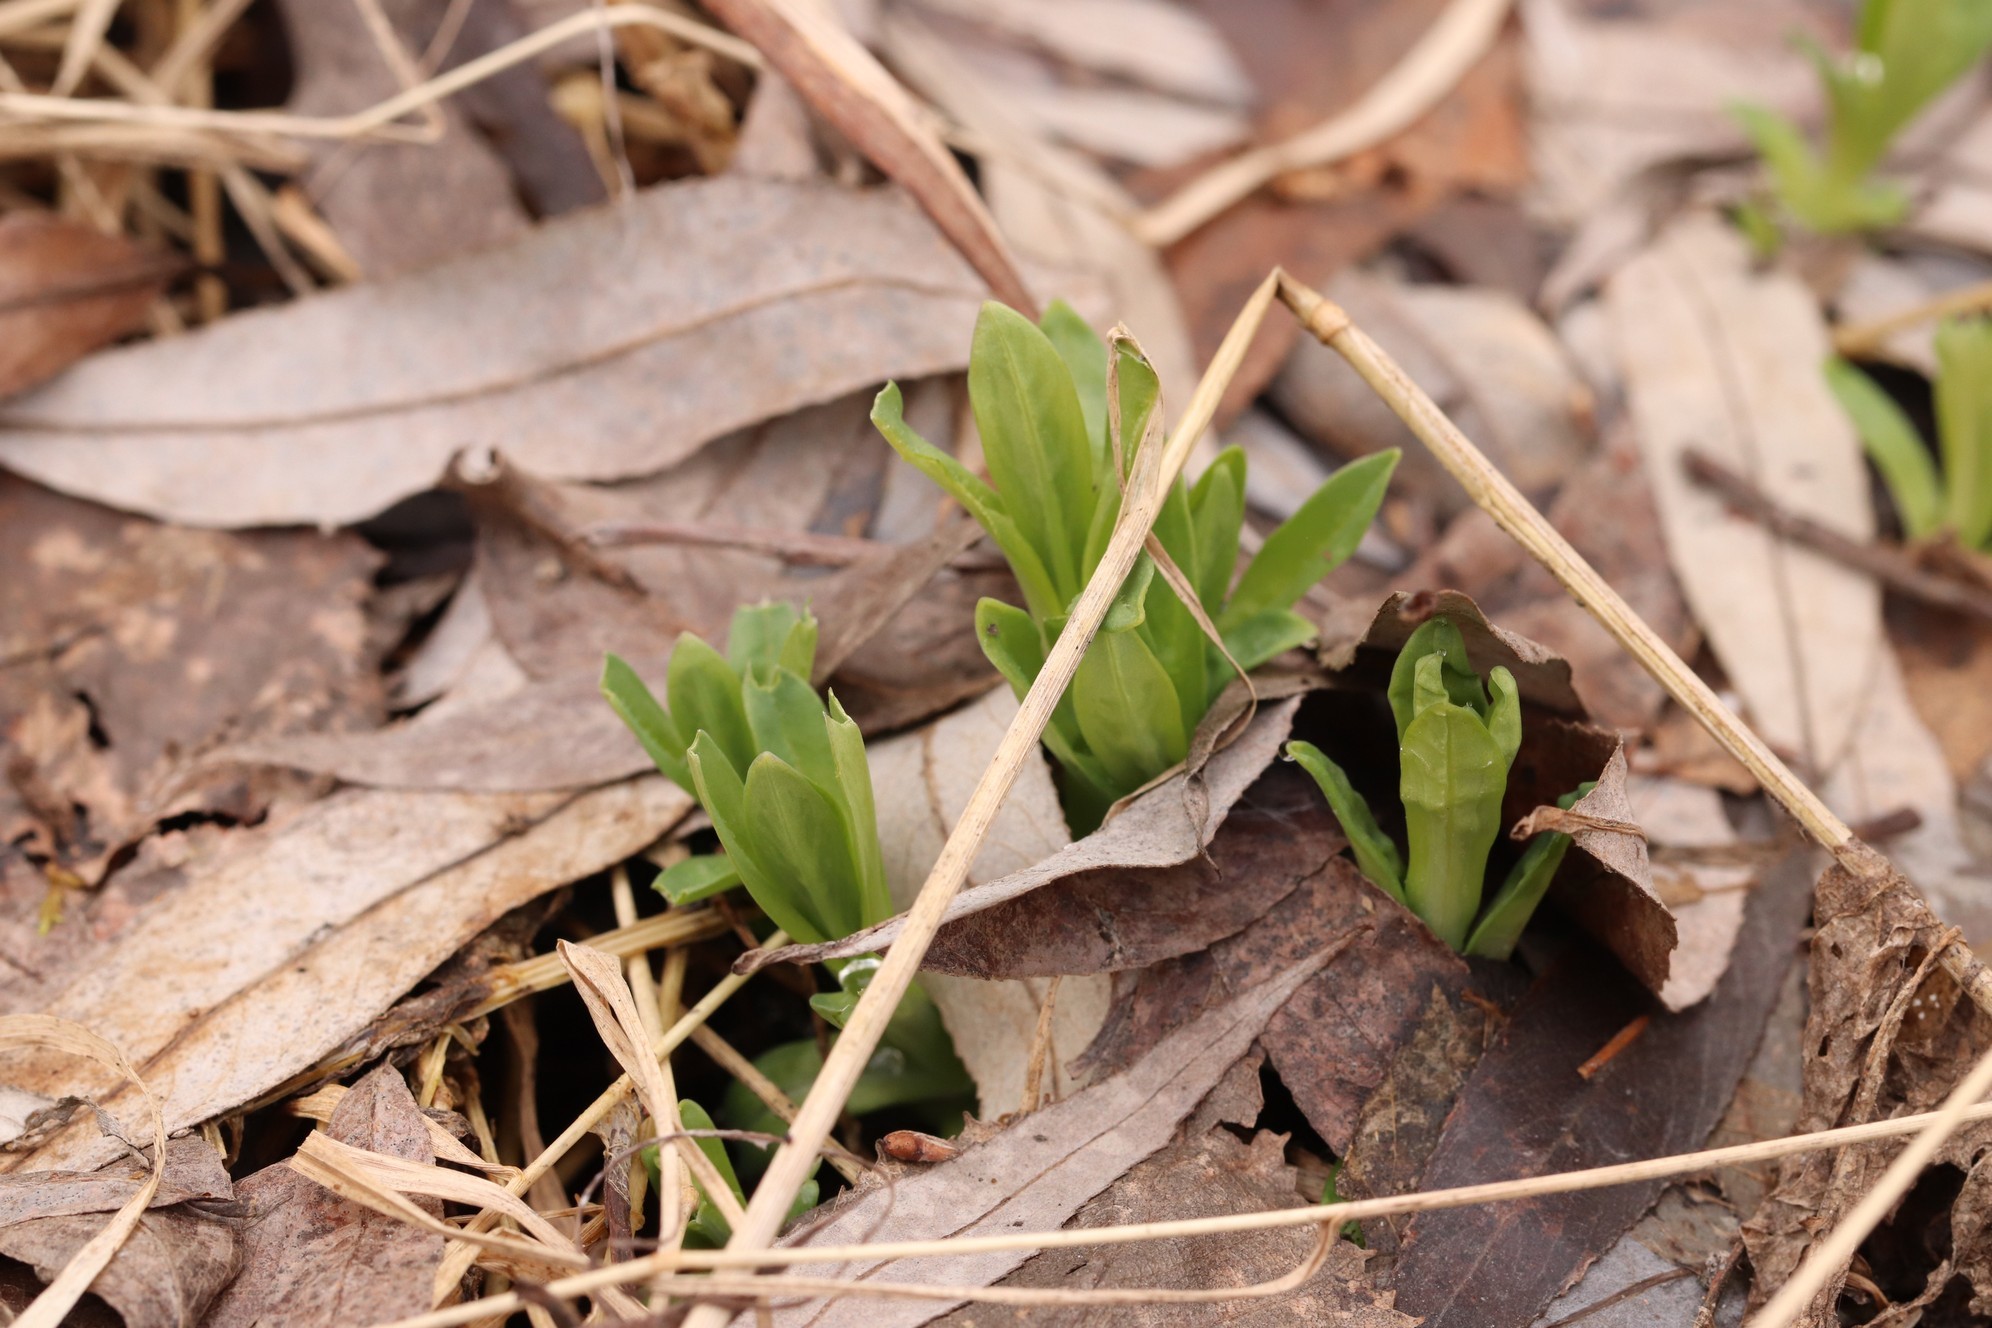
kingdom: Plantae
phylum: Tracheophyta
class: Magnoliopsida
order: Caryophyllales
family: Caryophyllaceae
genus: Silene
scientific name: Silene vulgaris
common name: Bladder campion
